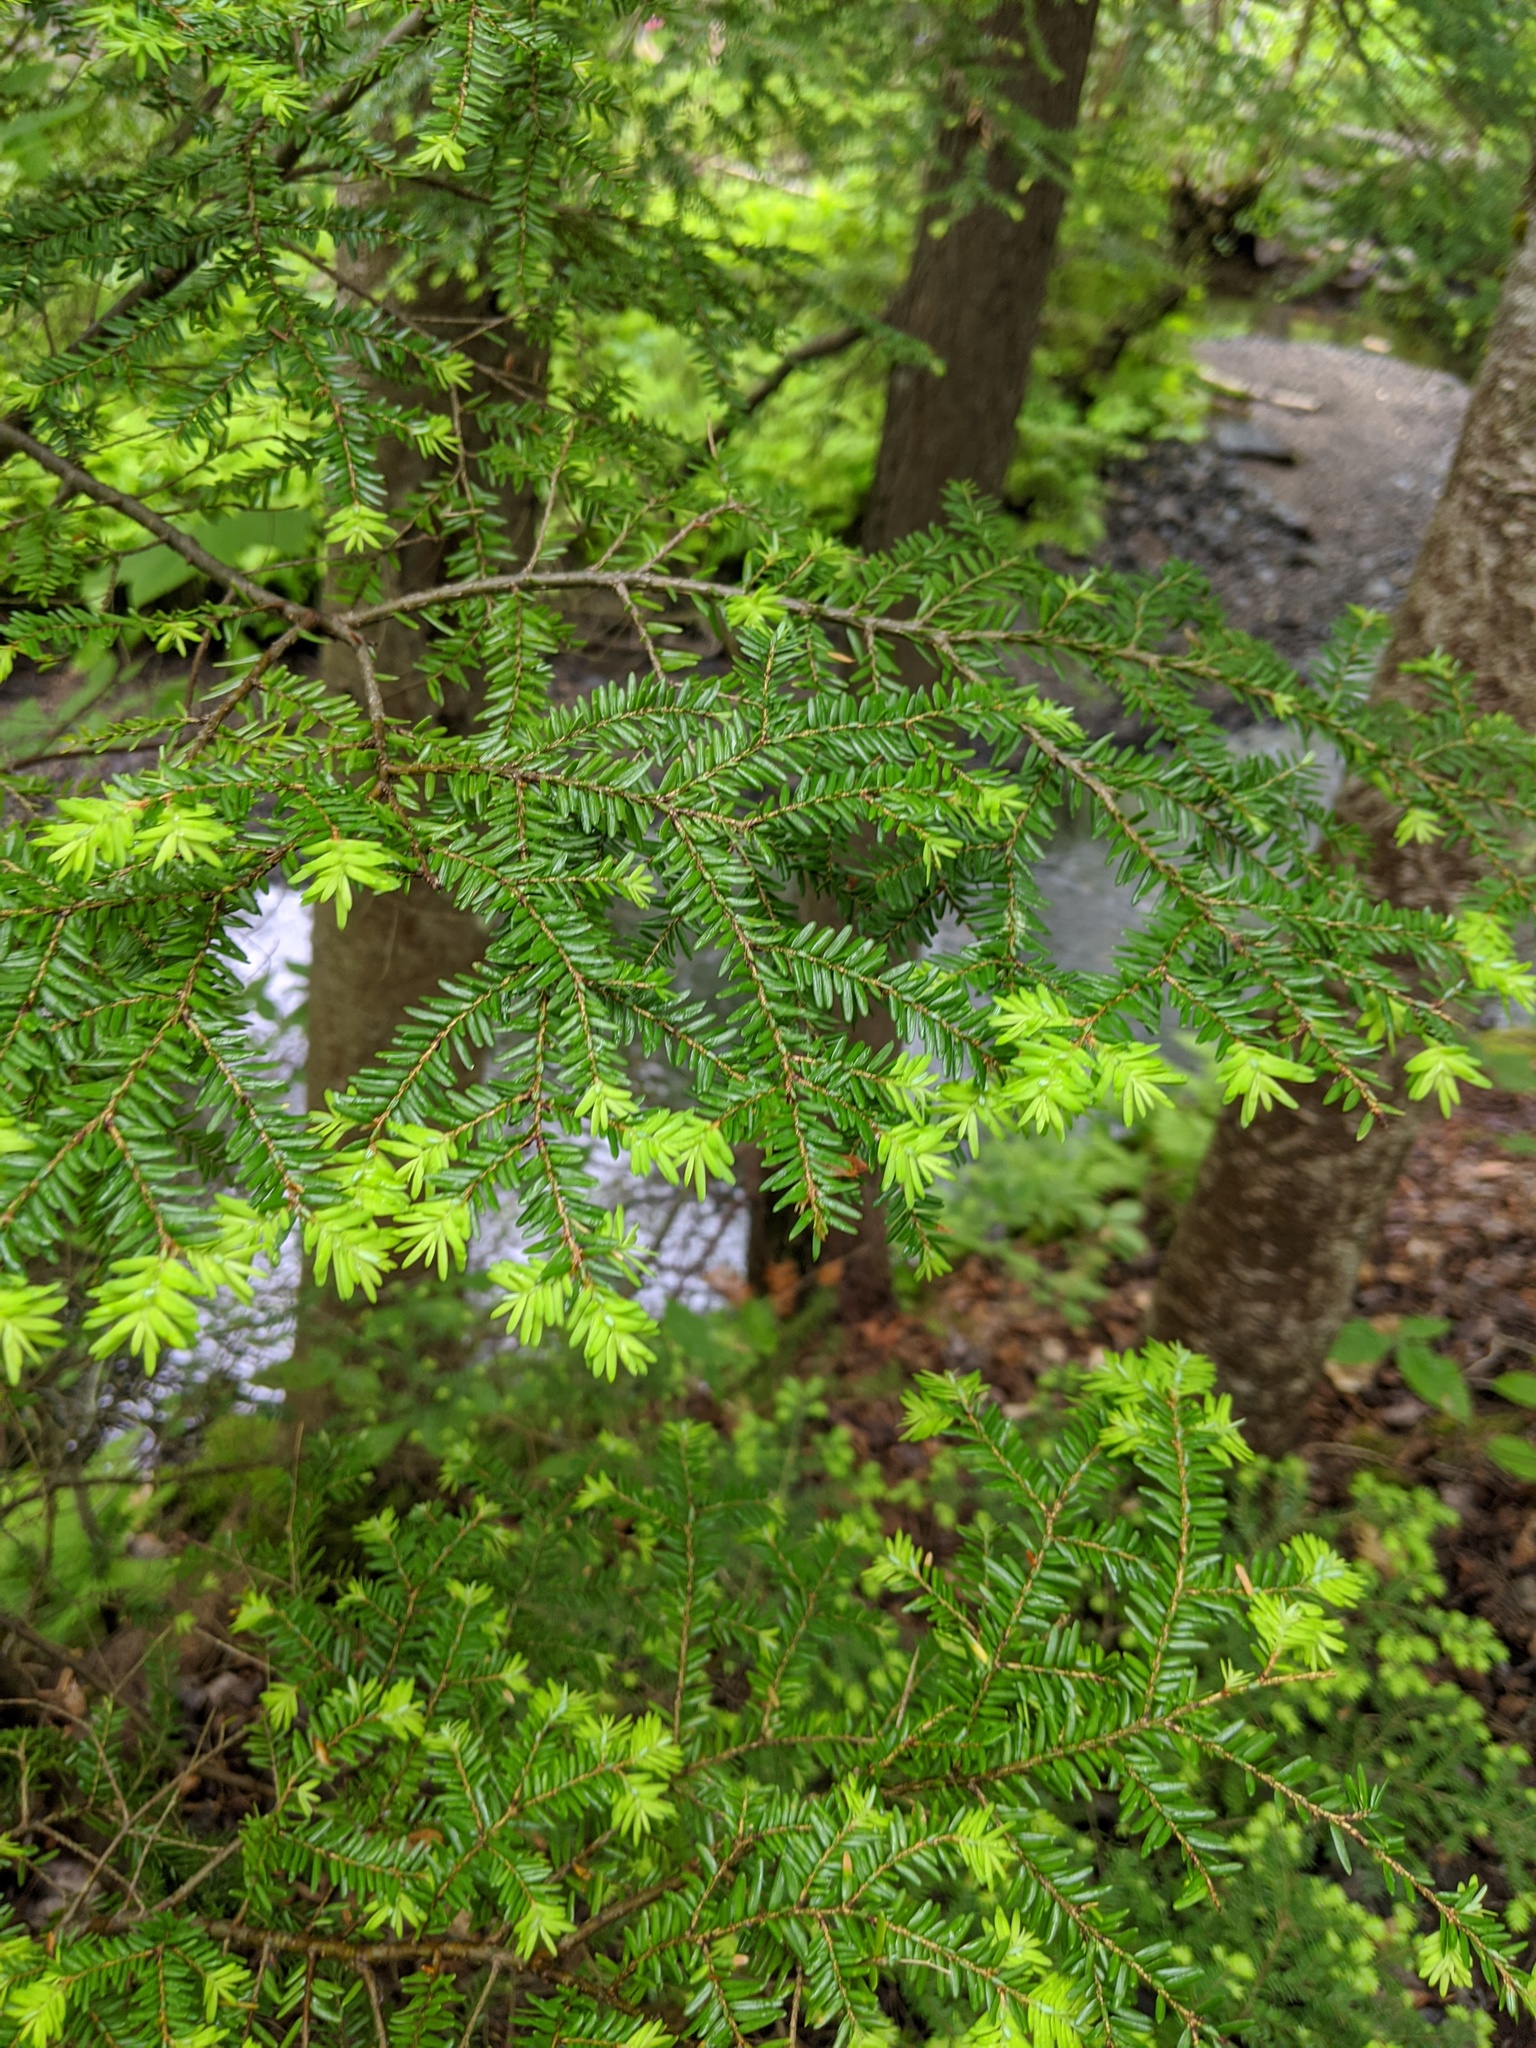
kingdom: Plantae
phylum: Tracheophyta
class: Pinopsida
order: Pinales
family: Pinaceae
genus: Tsuga
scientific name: Tsuga canadensis
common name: Eastern hemlock
